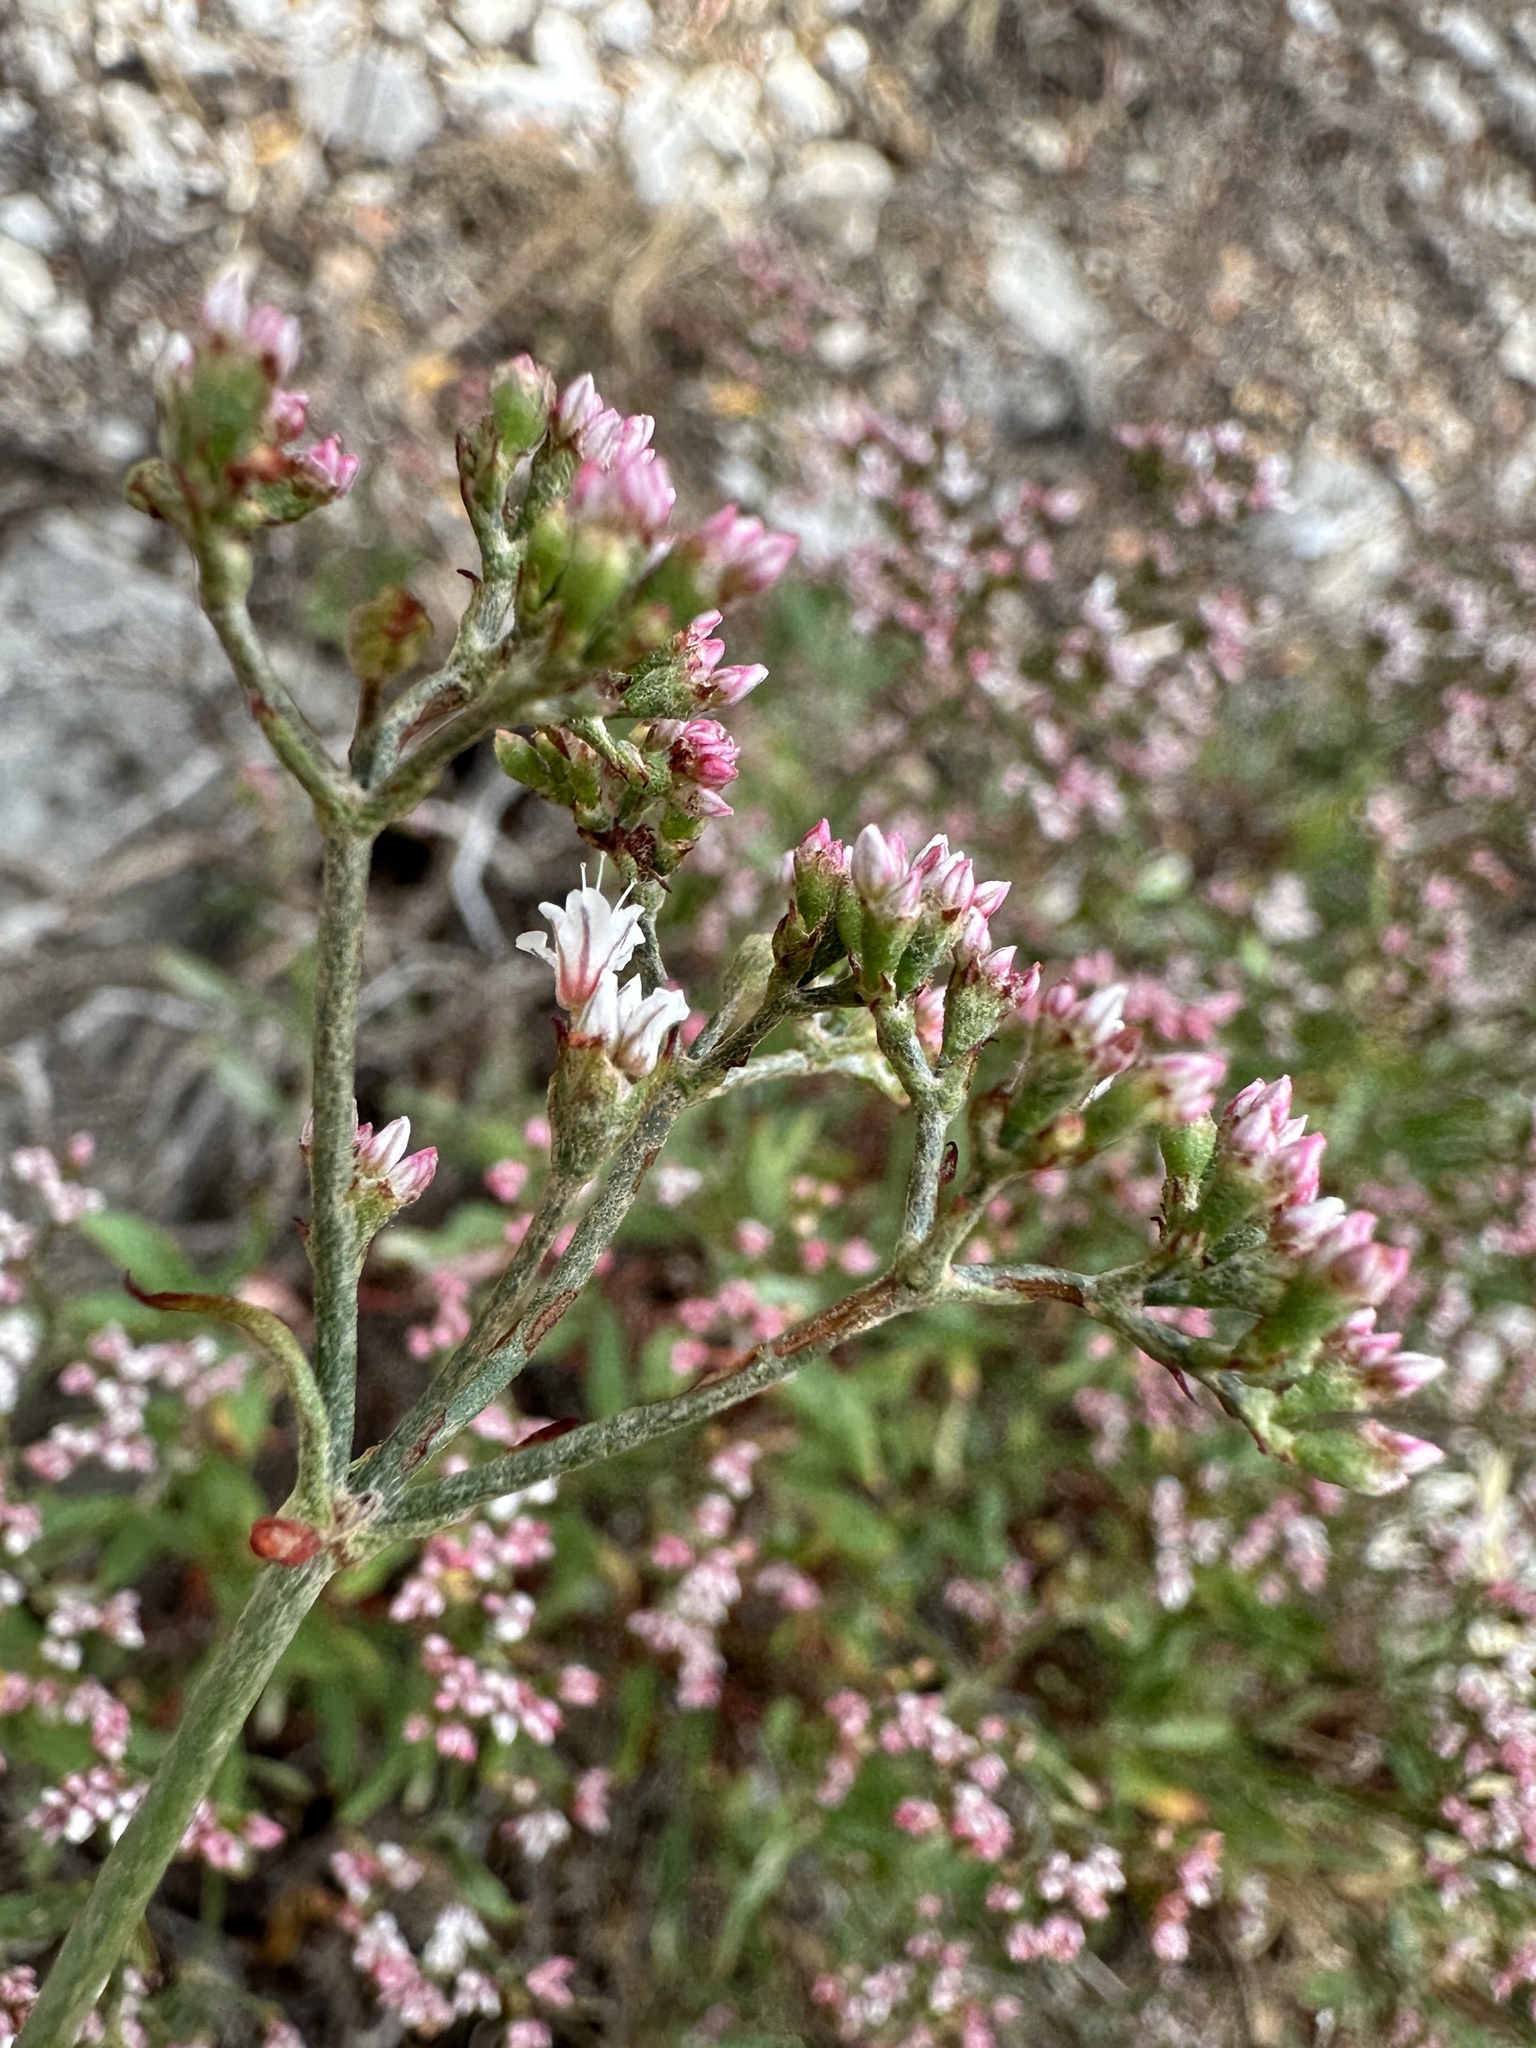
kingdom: Plantae
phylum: Tracheophyta
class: Magnoliopsida
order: Caryophyllales
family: Polygonaceae
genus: Eriogonum
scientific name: Eriogonum microtheca
